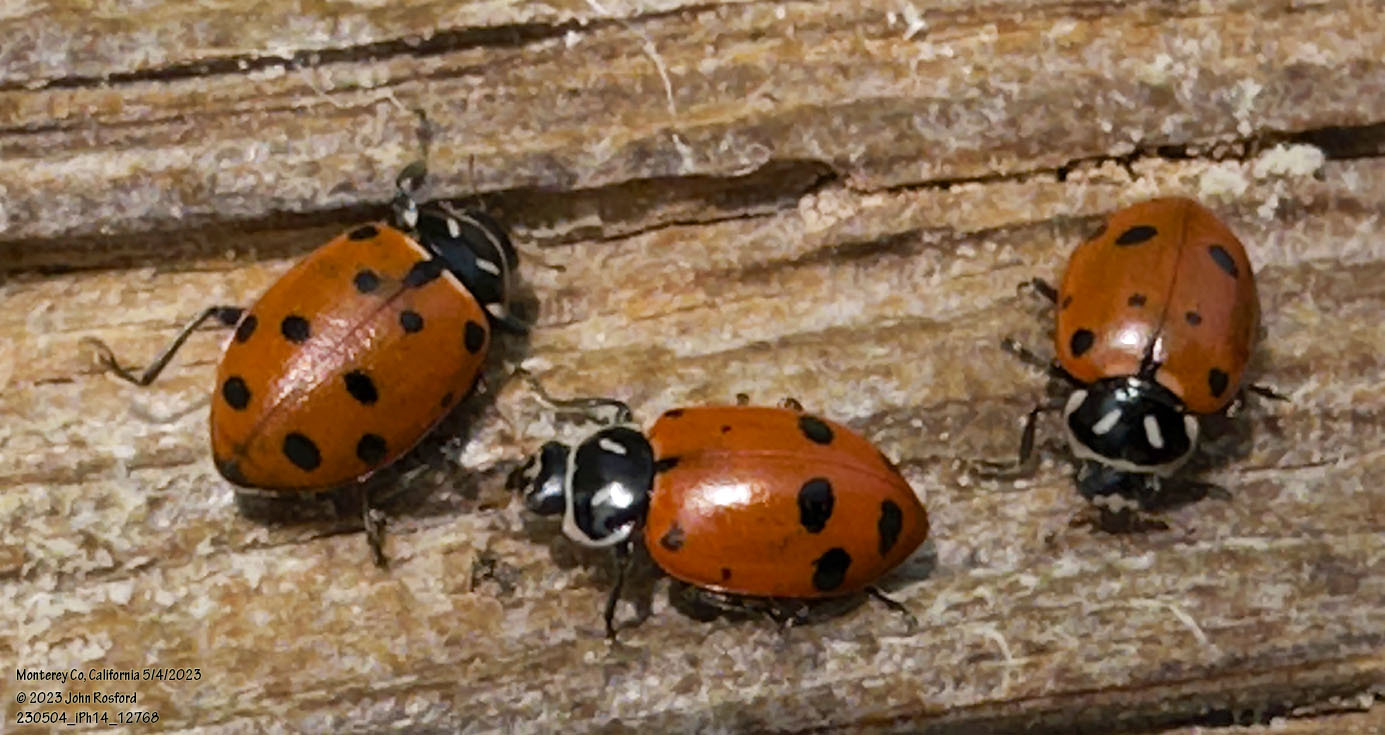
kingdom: Animalia
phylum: Arthropoda
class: Insecta
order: Coleoptera
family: Coccinellidae
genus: Hippodamia
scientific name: Hippodamia convergens
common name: Convergent lady beetle
